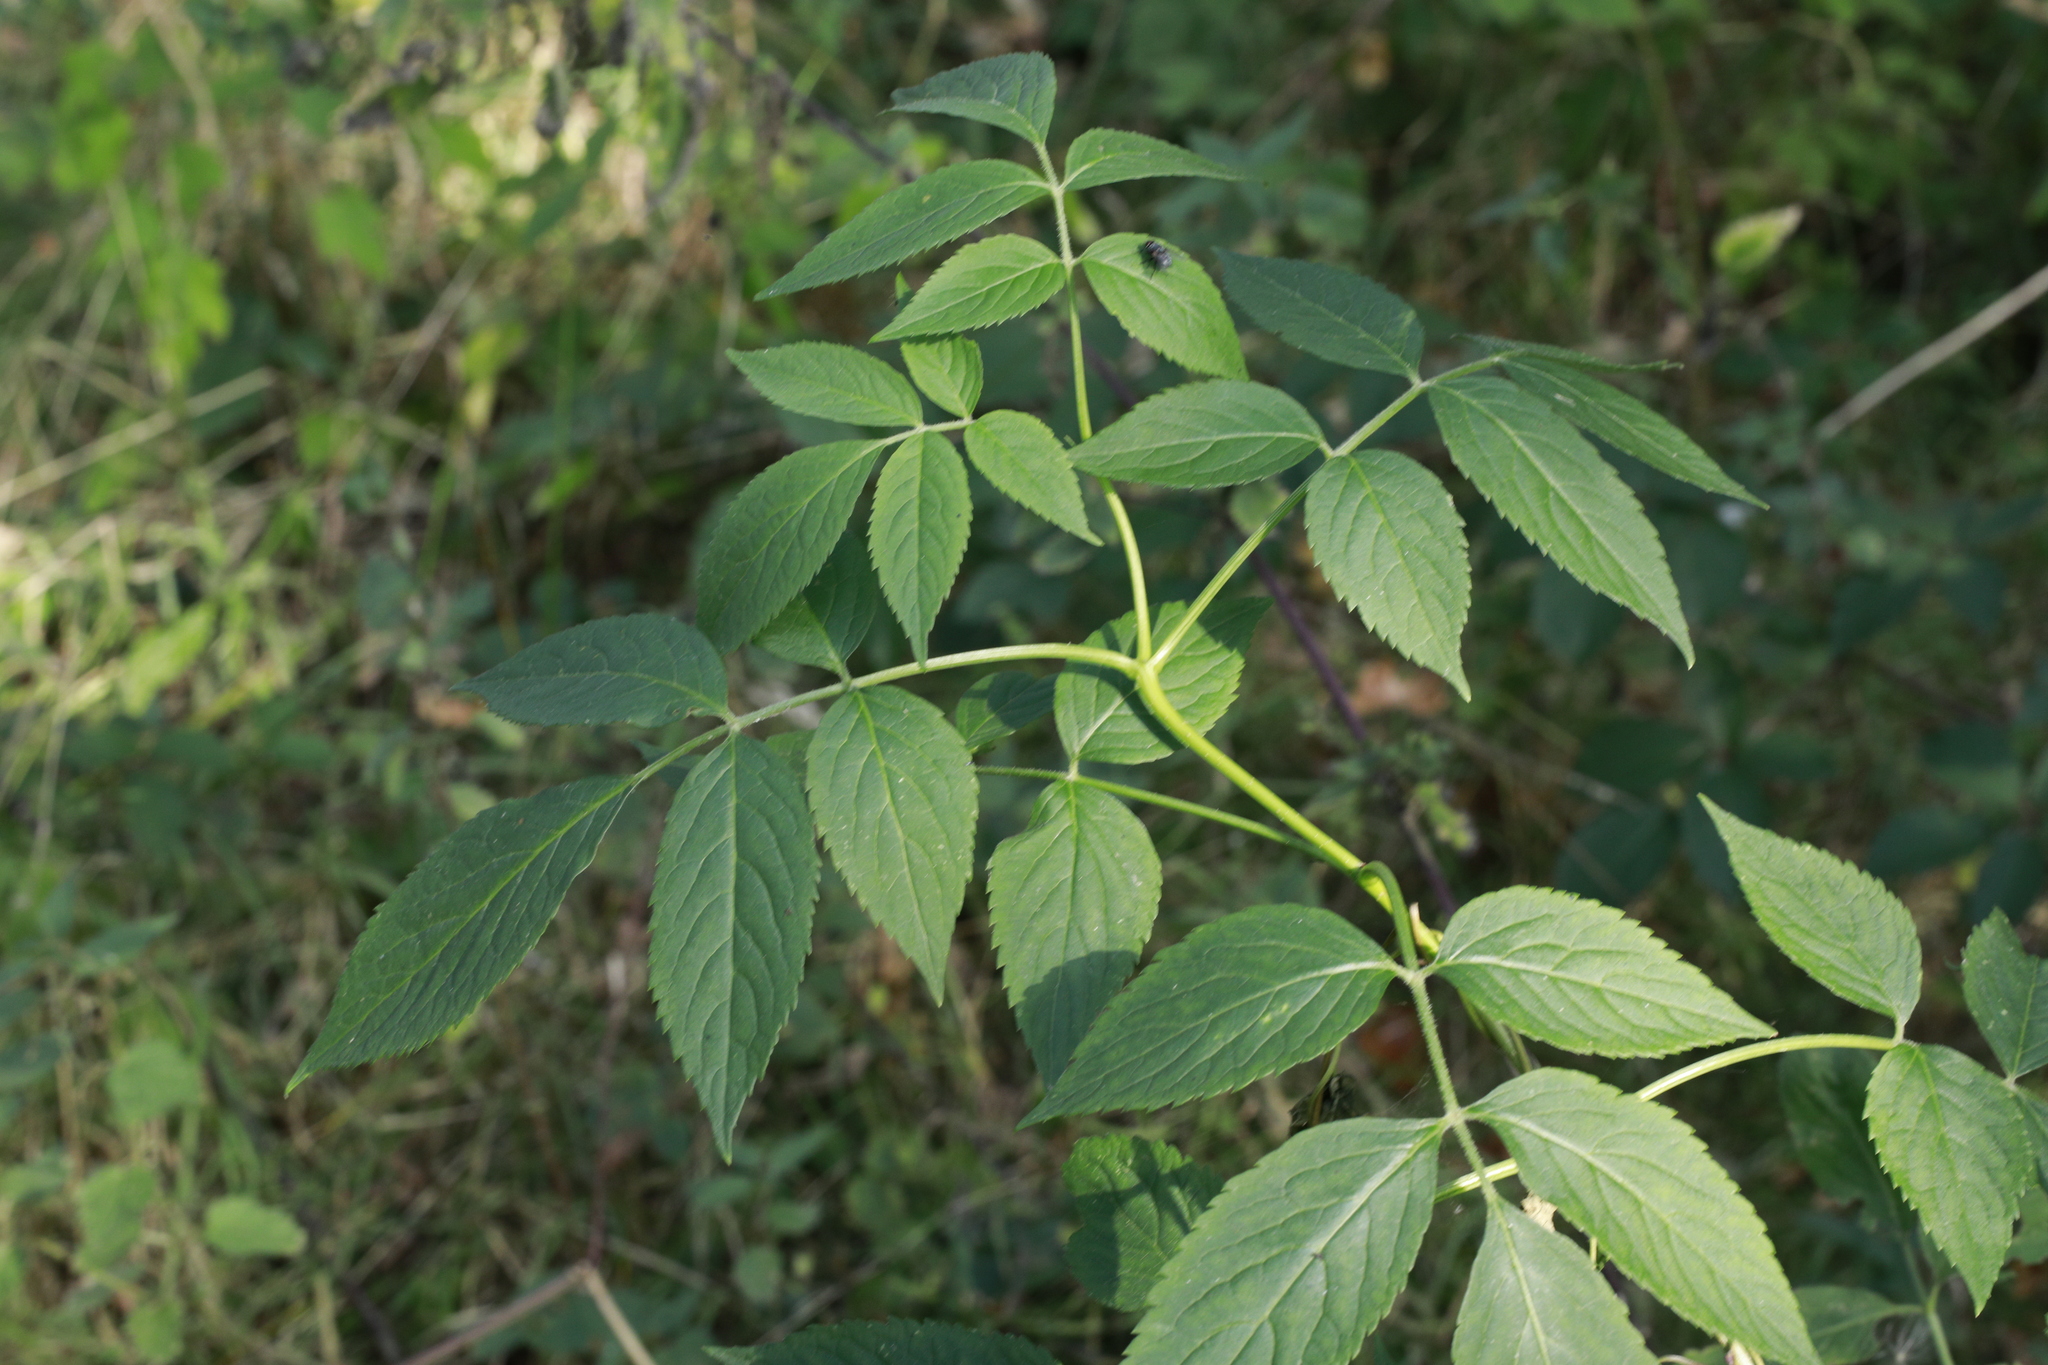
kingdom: Plantae
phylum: Tracheophyta
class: Magnoliopsida
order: Dipsacales
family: Viburnaceae
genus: Sambucus
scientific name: Sambucus nigra
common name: Elder
